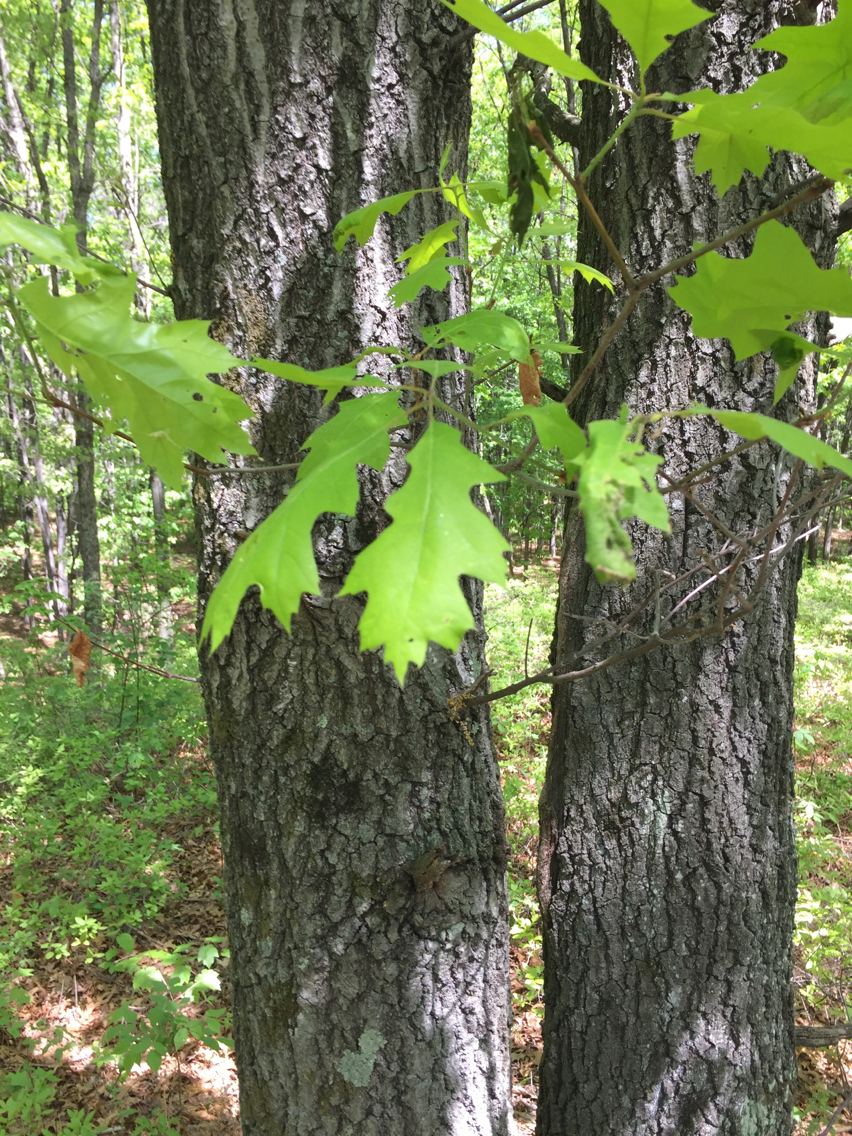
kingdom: Plantae
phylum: Tracheophyta
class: Magnoliopsida
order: Fagales
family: Fagaceae
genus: Quercus
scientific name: Quercus velutina
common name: Black oak
